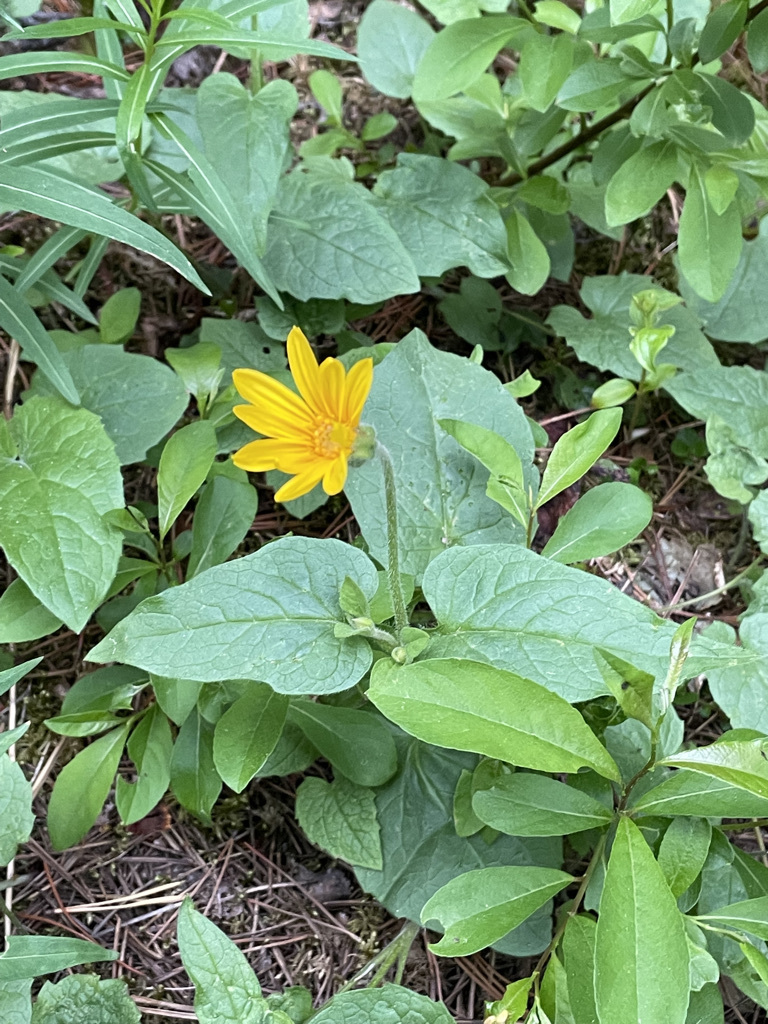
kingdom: Plantae
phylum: Tracheophyta
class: Magnoliopsida
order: Asterales
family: Asteraceae
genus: Arnica
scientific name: Arnica cordifolia
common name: Heart-leaf arnica
